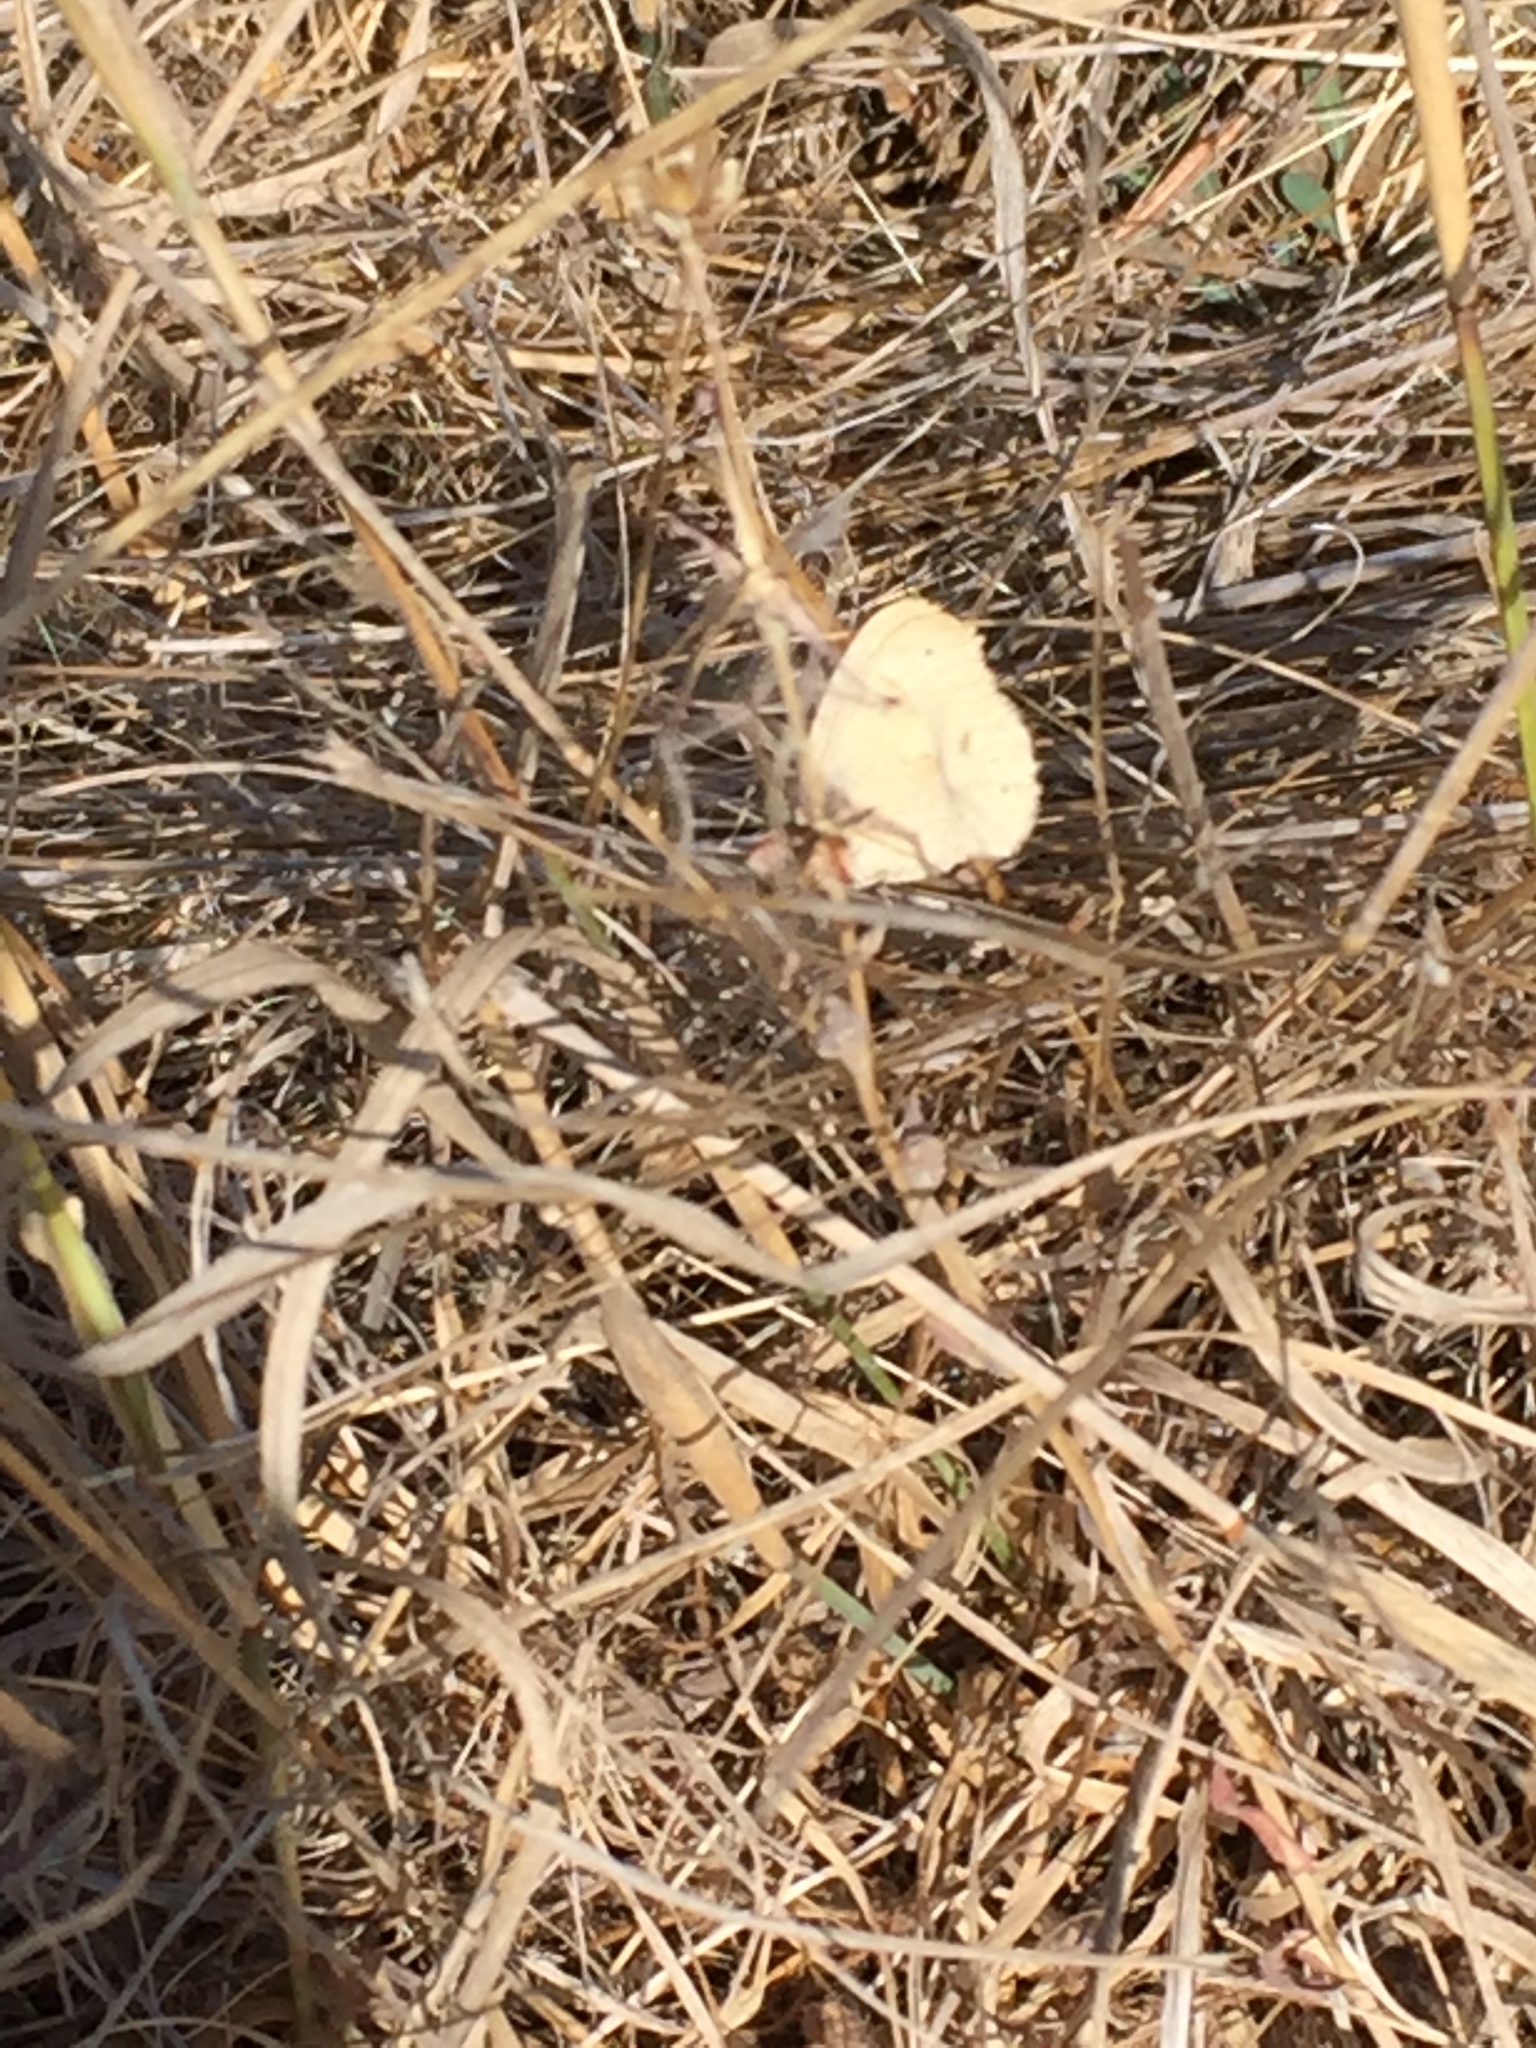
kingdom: Animalia
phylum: Arthropoda
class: Insecta
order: Lepidoptera
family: Nymphalidae
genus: Coenonympha
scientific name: Coenonympha california
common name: Common ringlet
